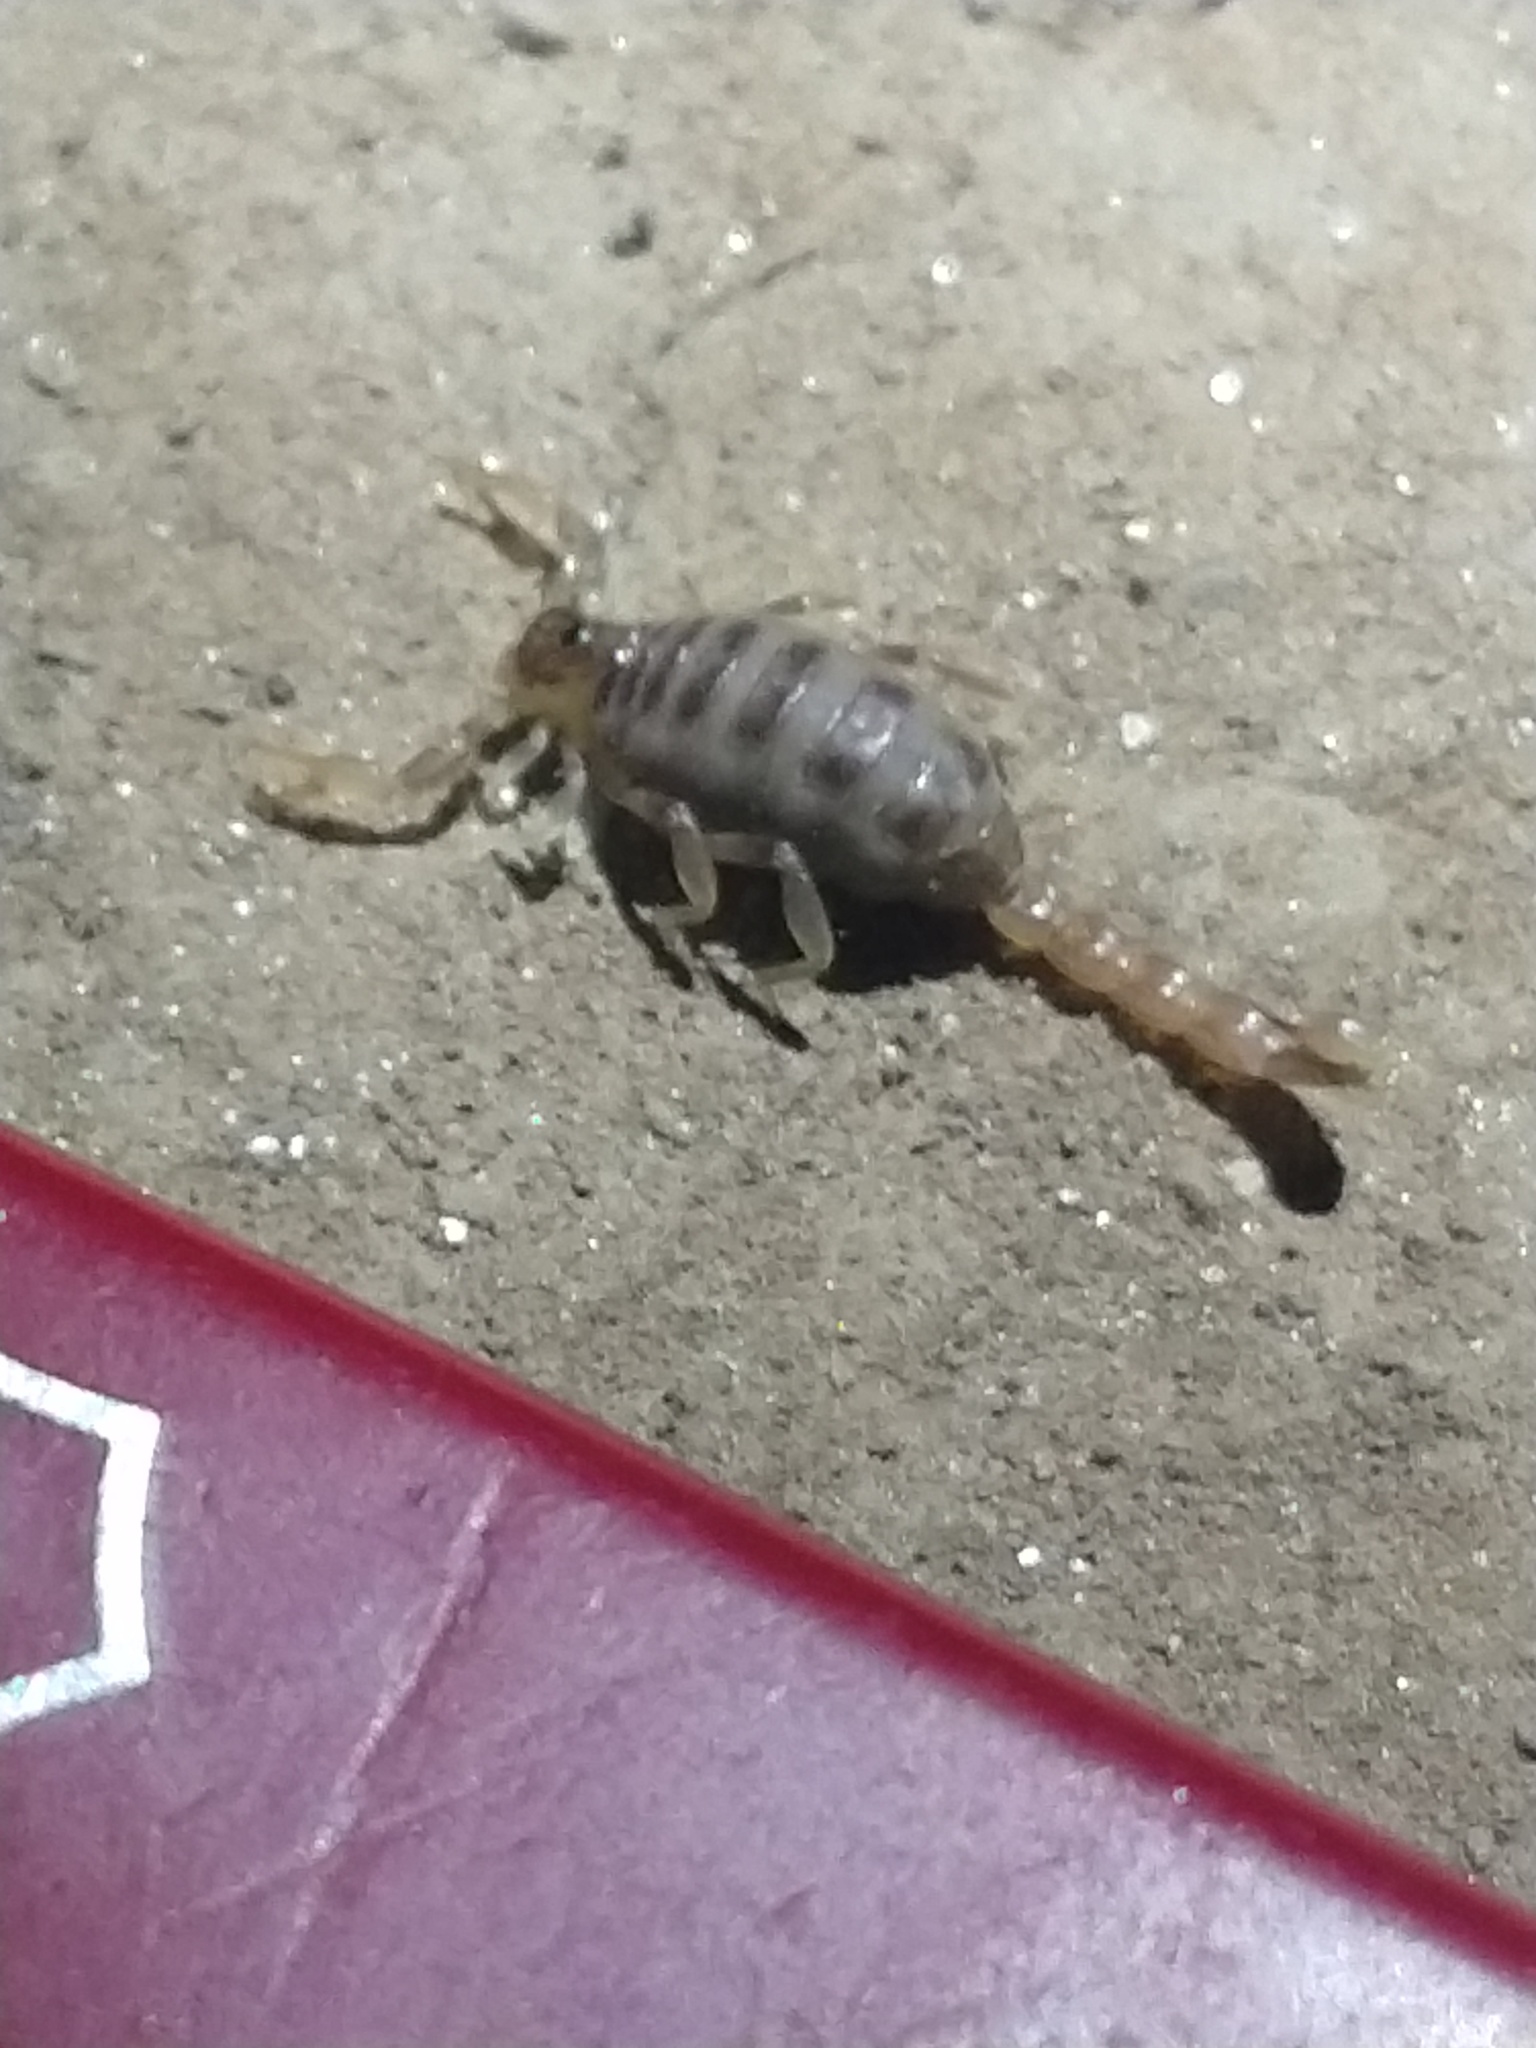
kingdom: Animalia
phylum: Arthropoda
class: Arachnida
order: Scorpiones
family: Bothriuridae
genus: Brachistosternus
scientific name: Brachistosternus ferrugineus
